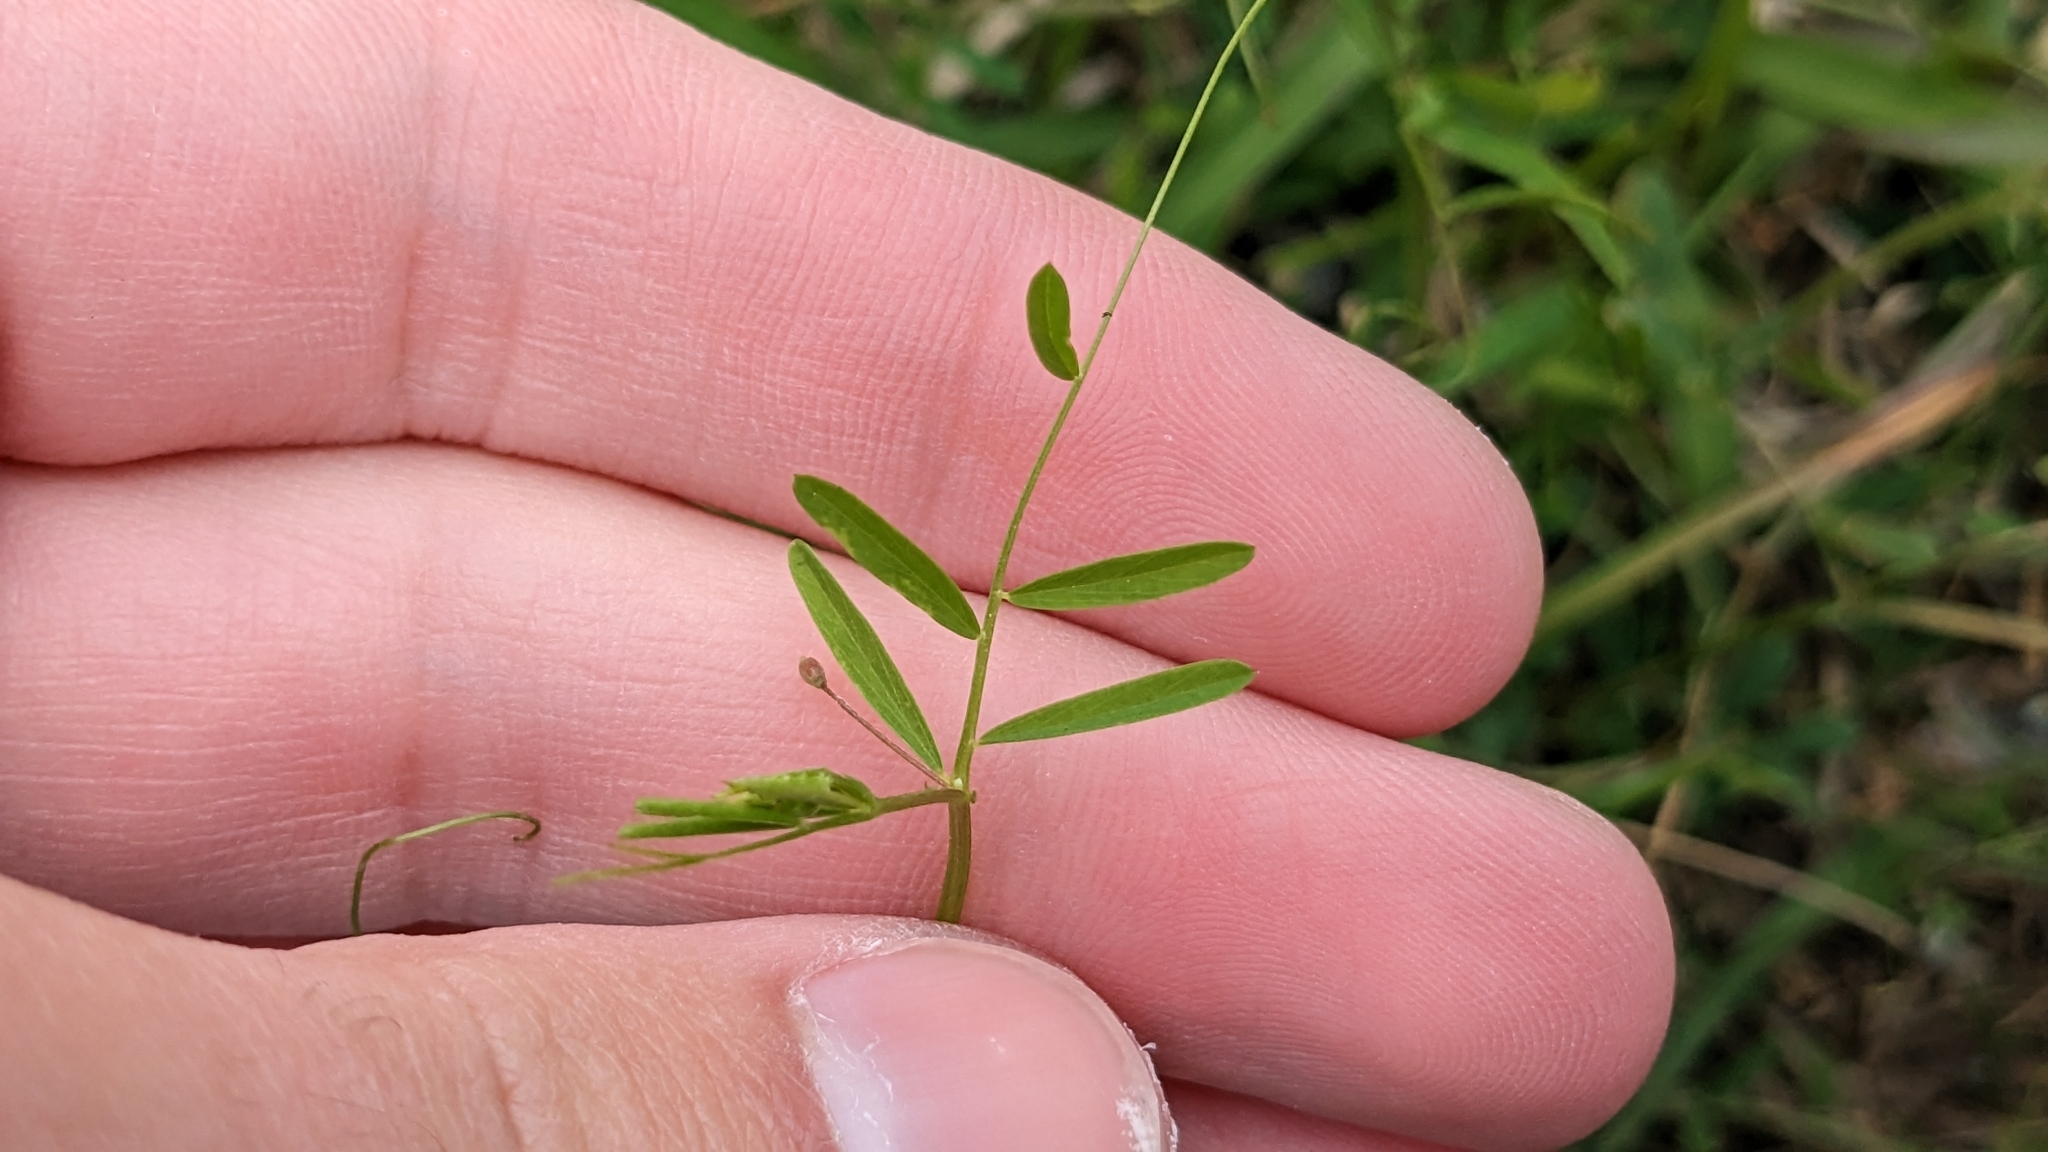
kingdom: Plantae
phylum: Tracheophyta
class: Magnoliopsida
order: Fabales
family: Fabaceae
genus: Vicia
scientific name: Vicia tetrasperma
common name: Smooth tare
